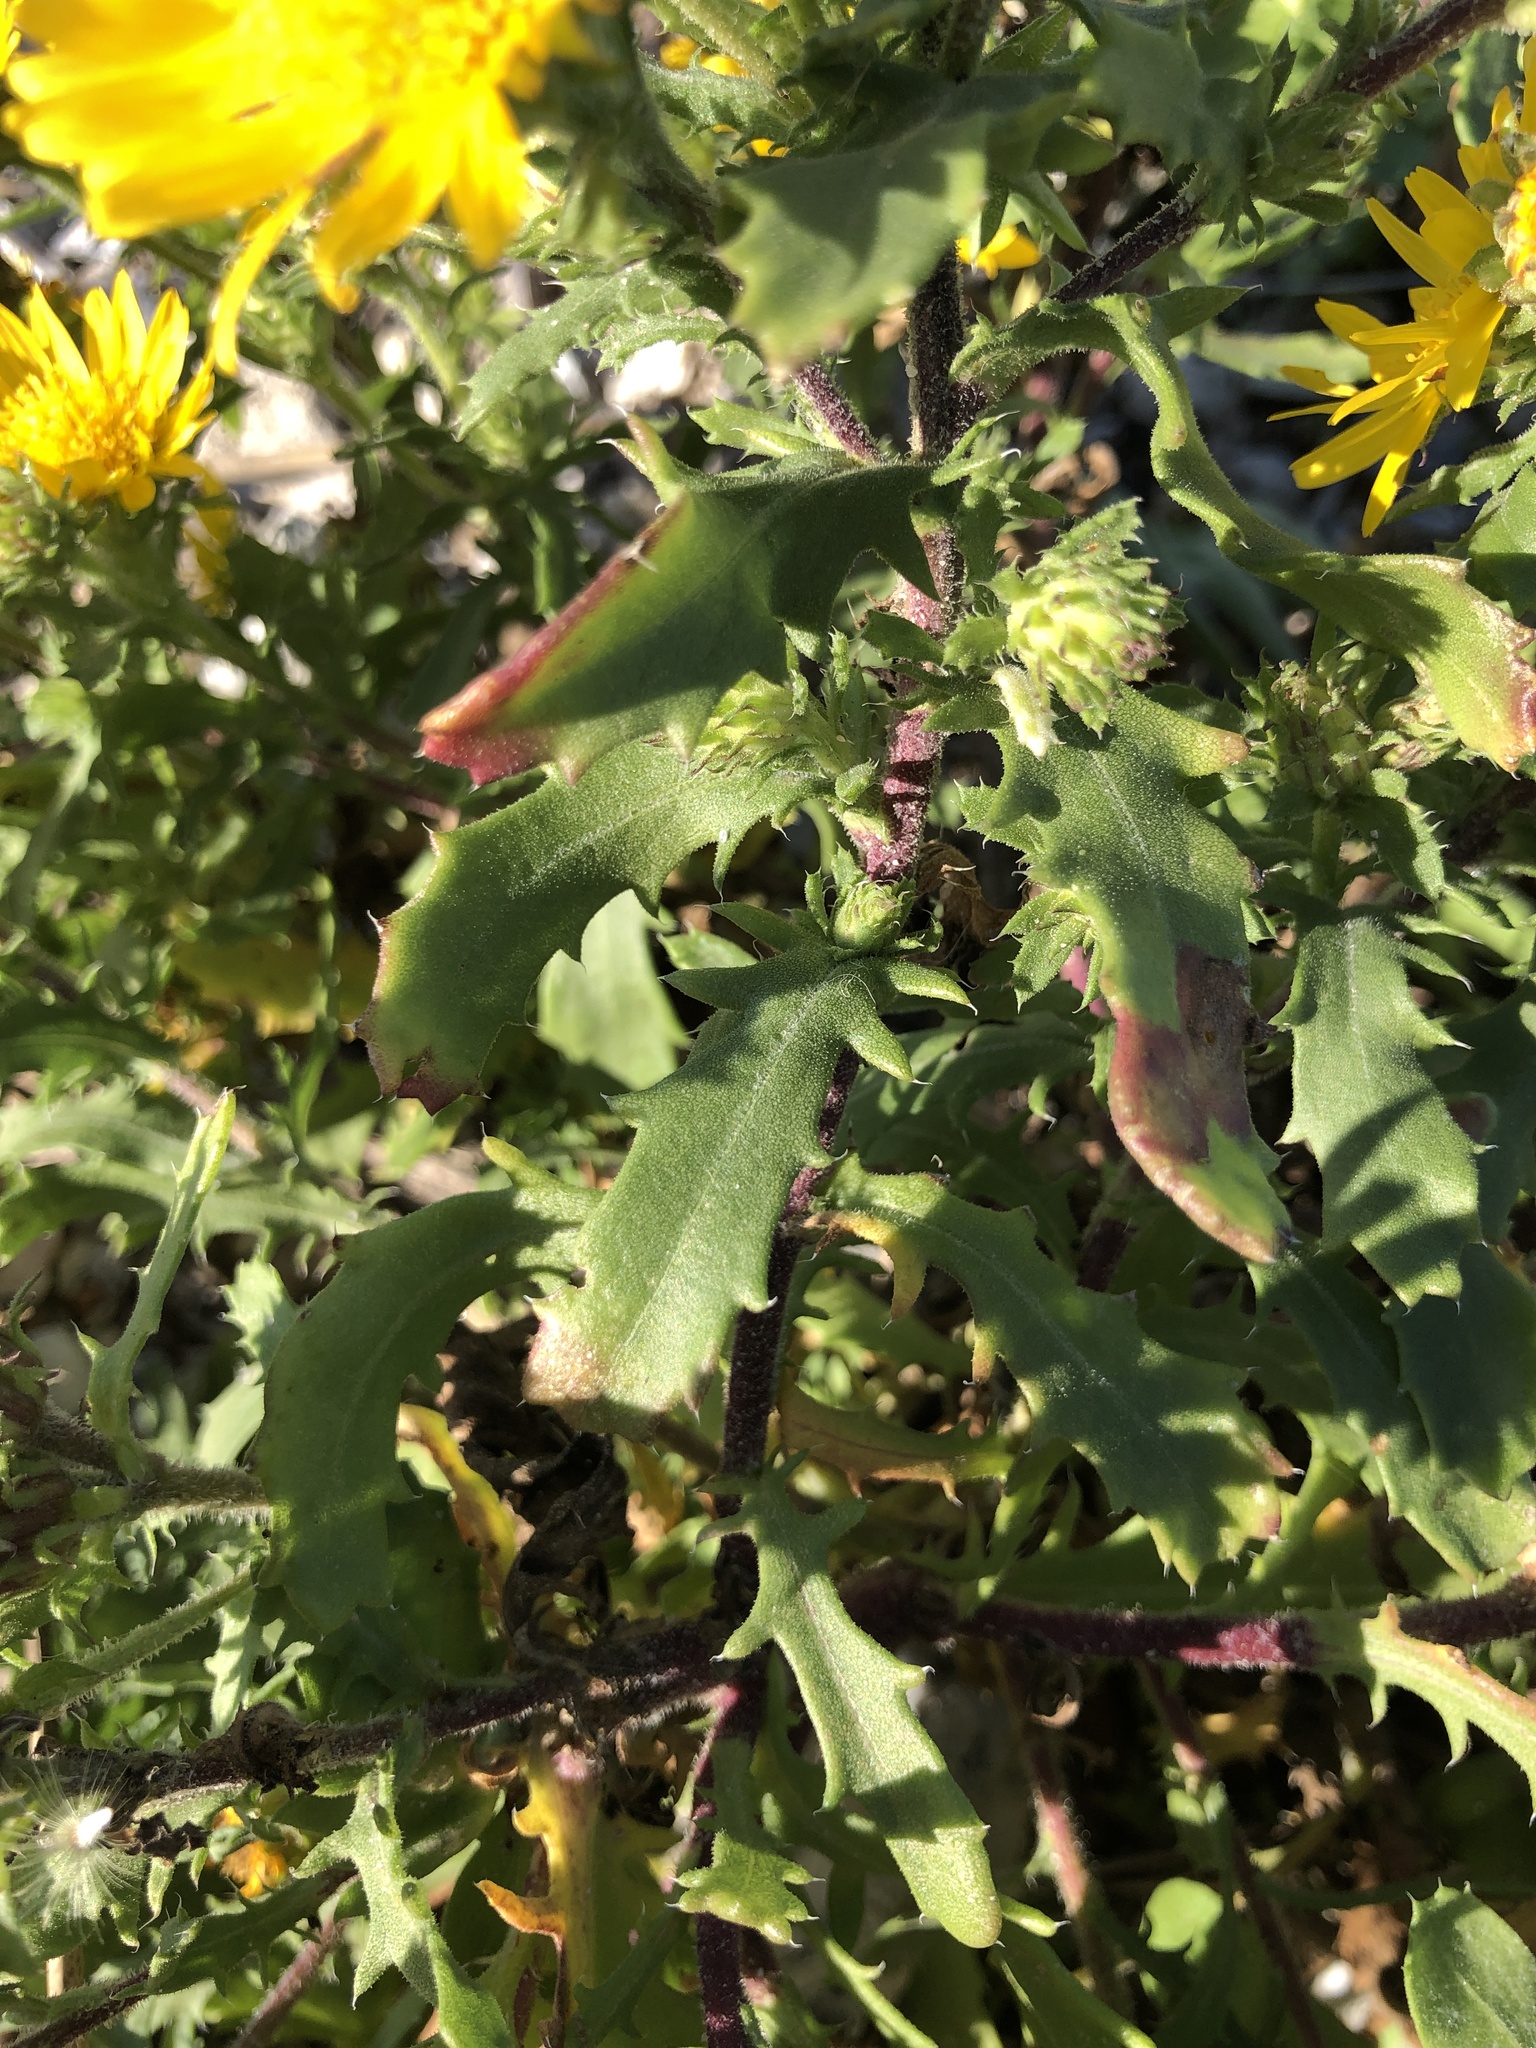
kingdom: Plantae
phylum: Tracheophyta
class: Magnoliopsida
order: Asterales
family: Asteraceae
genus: Rayjacksonia
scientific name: Rayjacksonia phyllocephala
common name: Gulf coast camphor daisy
